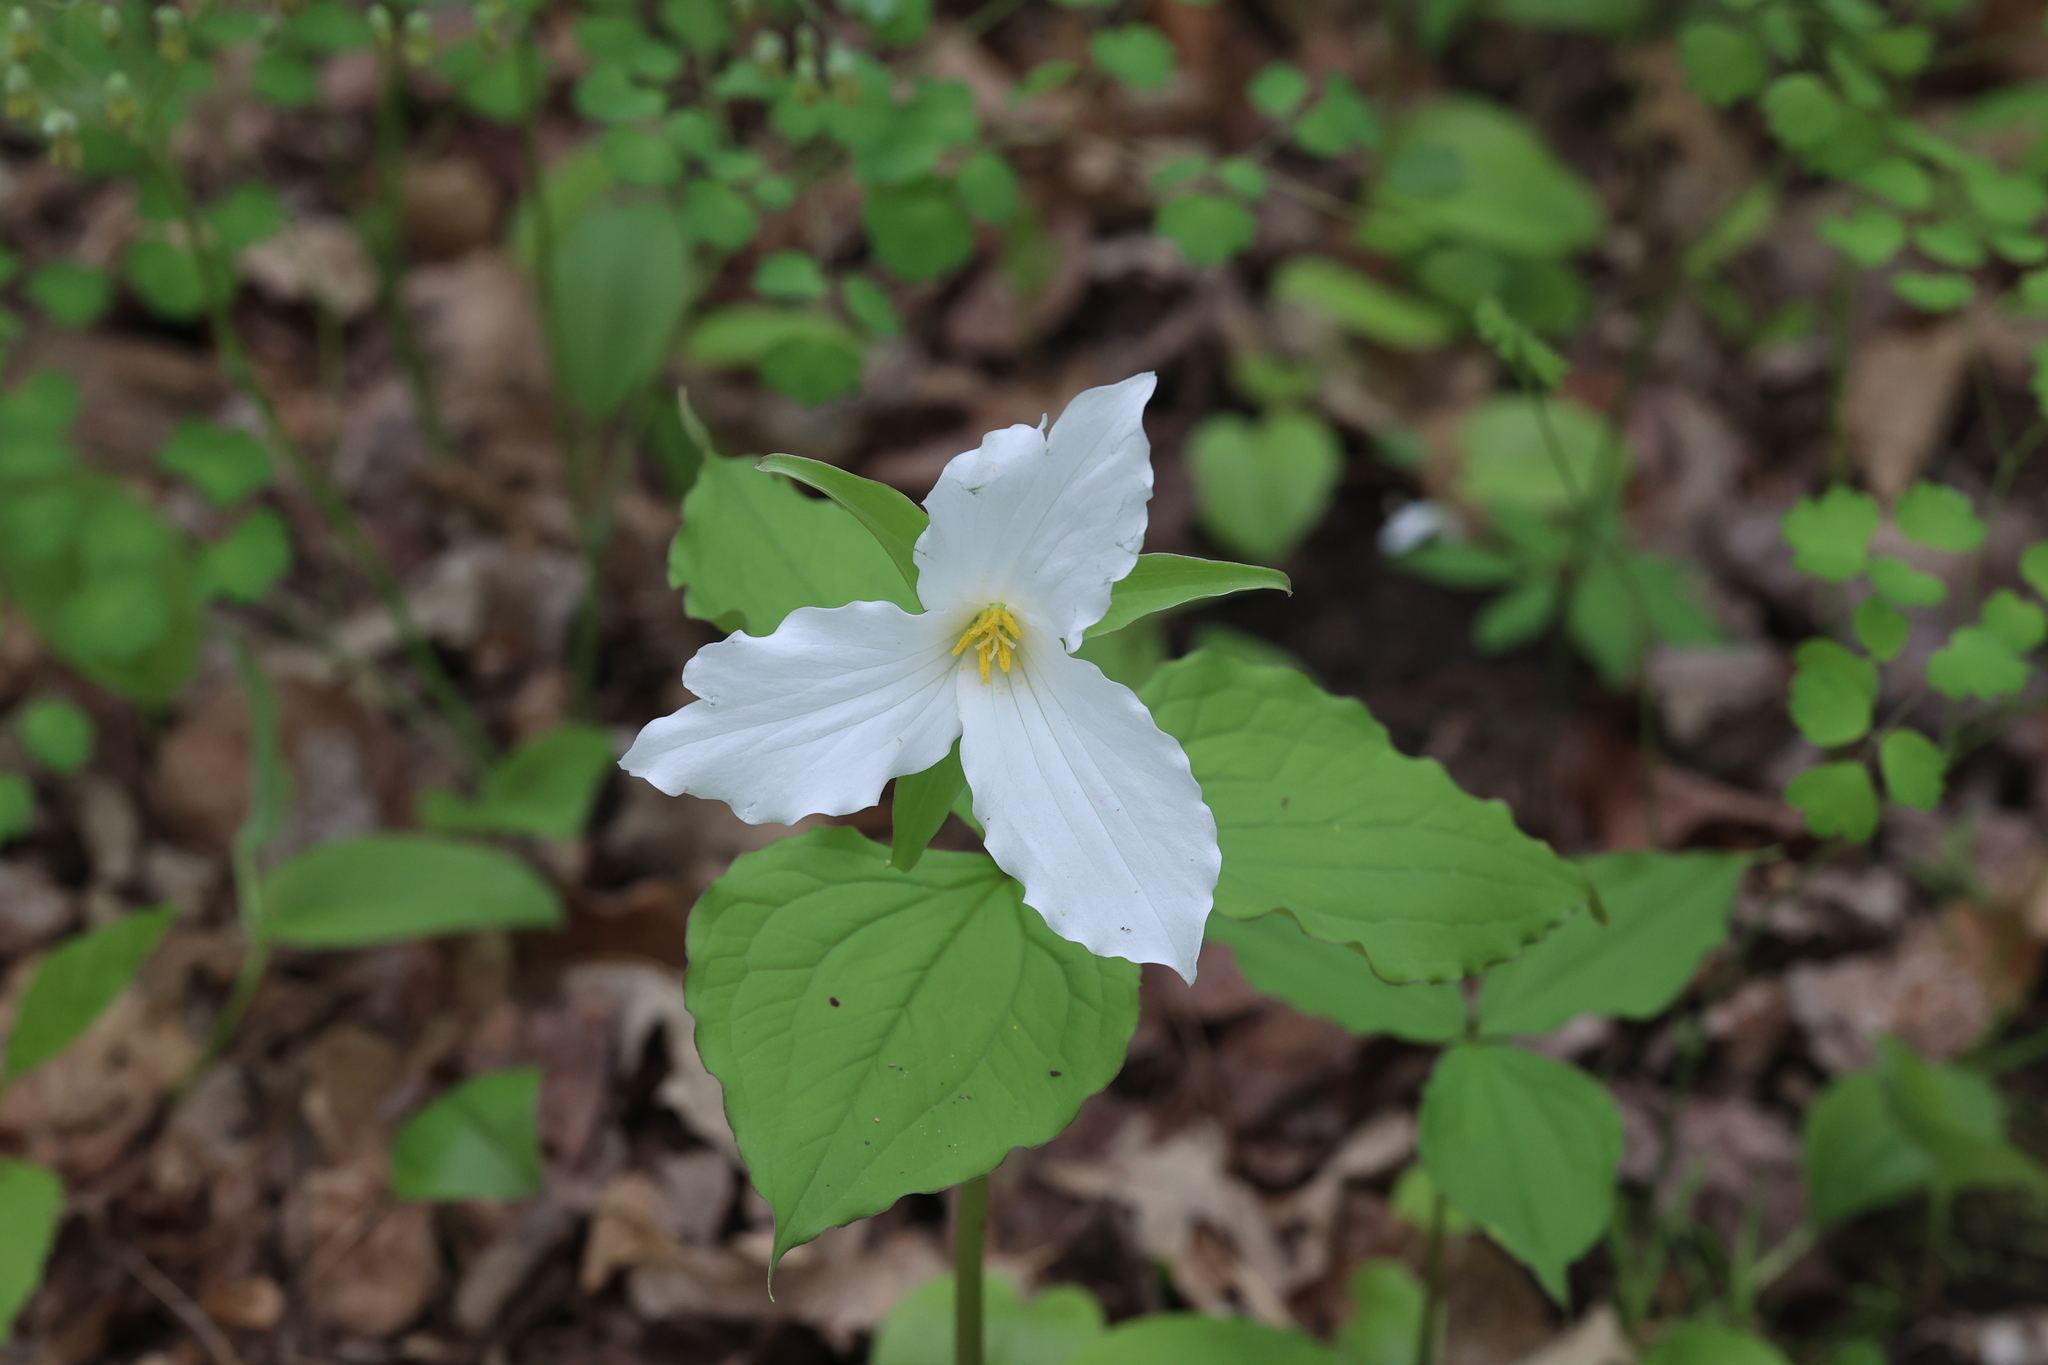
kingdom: Plantae
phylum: Tracheophyta
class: Liliopsida
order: Liliales
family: Melanthiaceae
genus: Trillium
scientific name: Trillium grandiflorum
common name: Great white trillium
